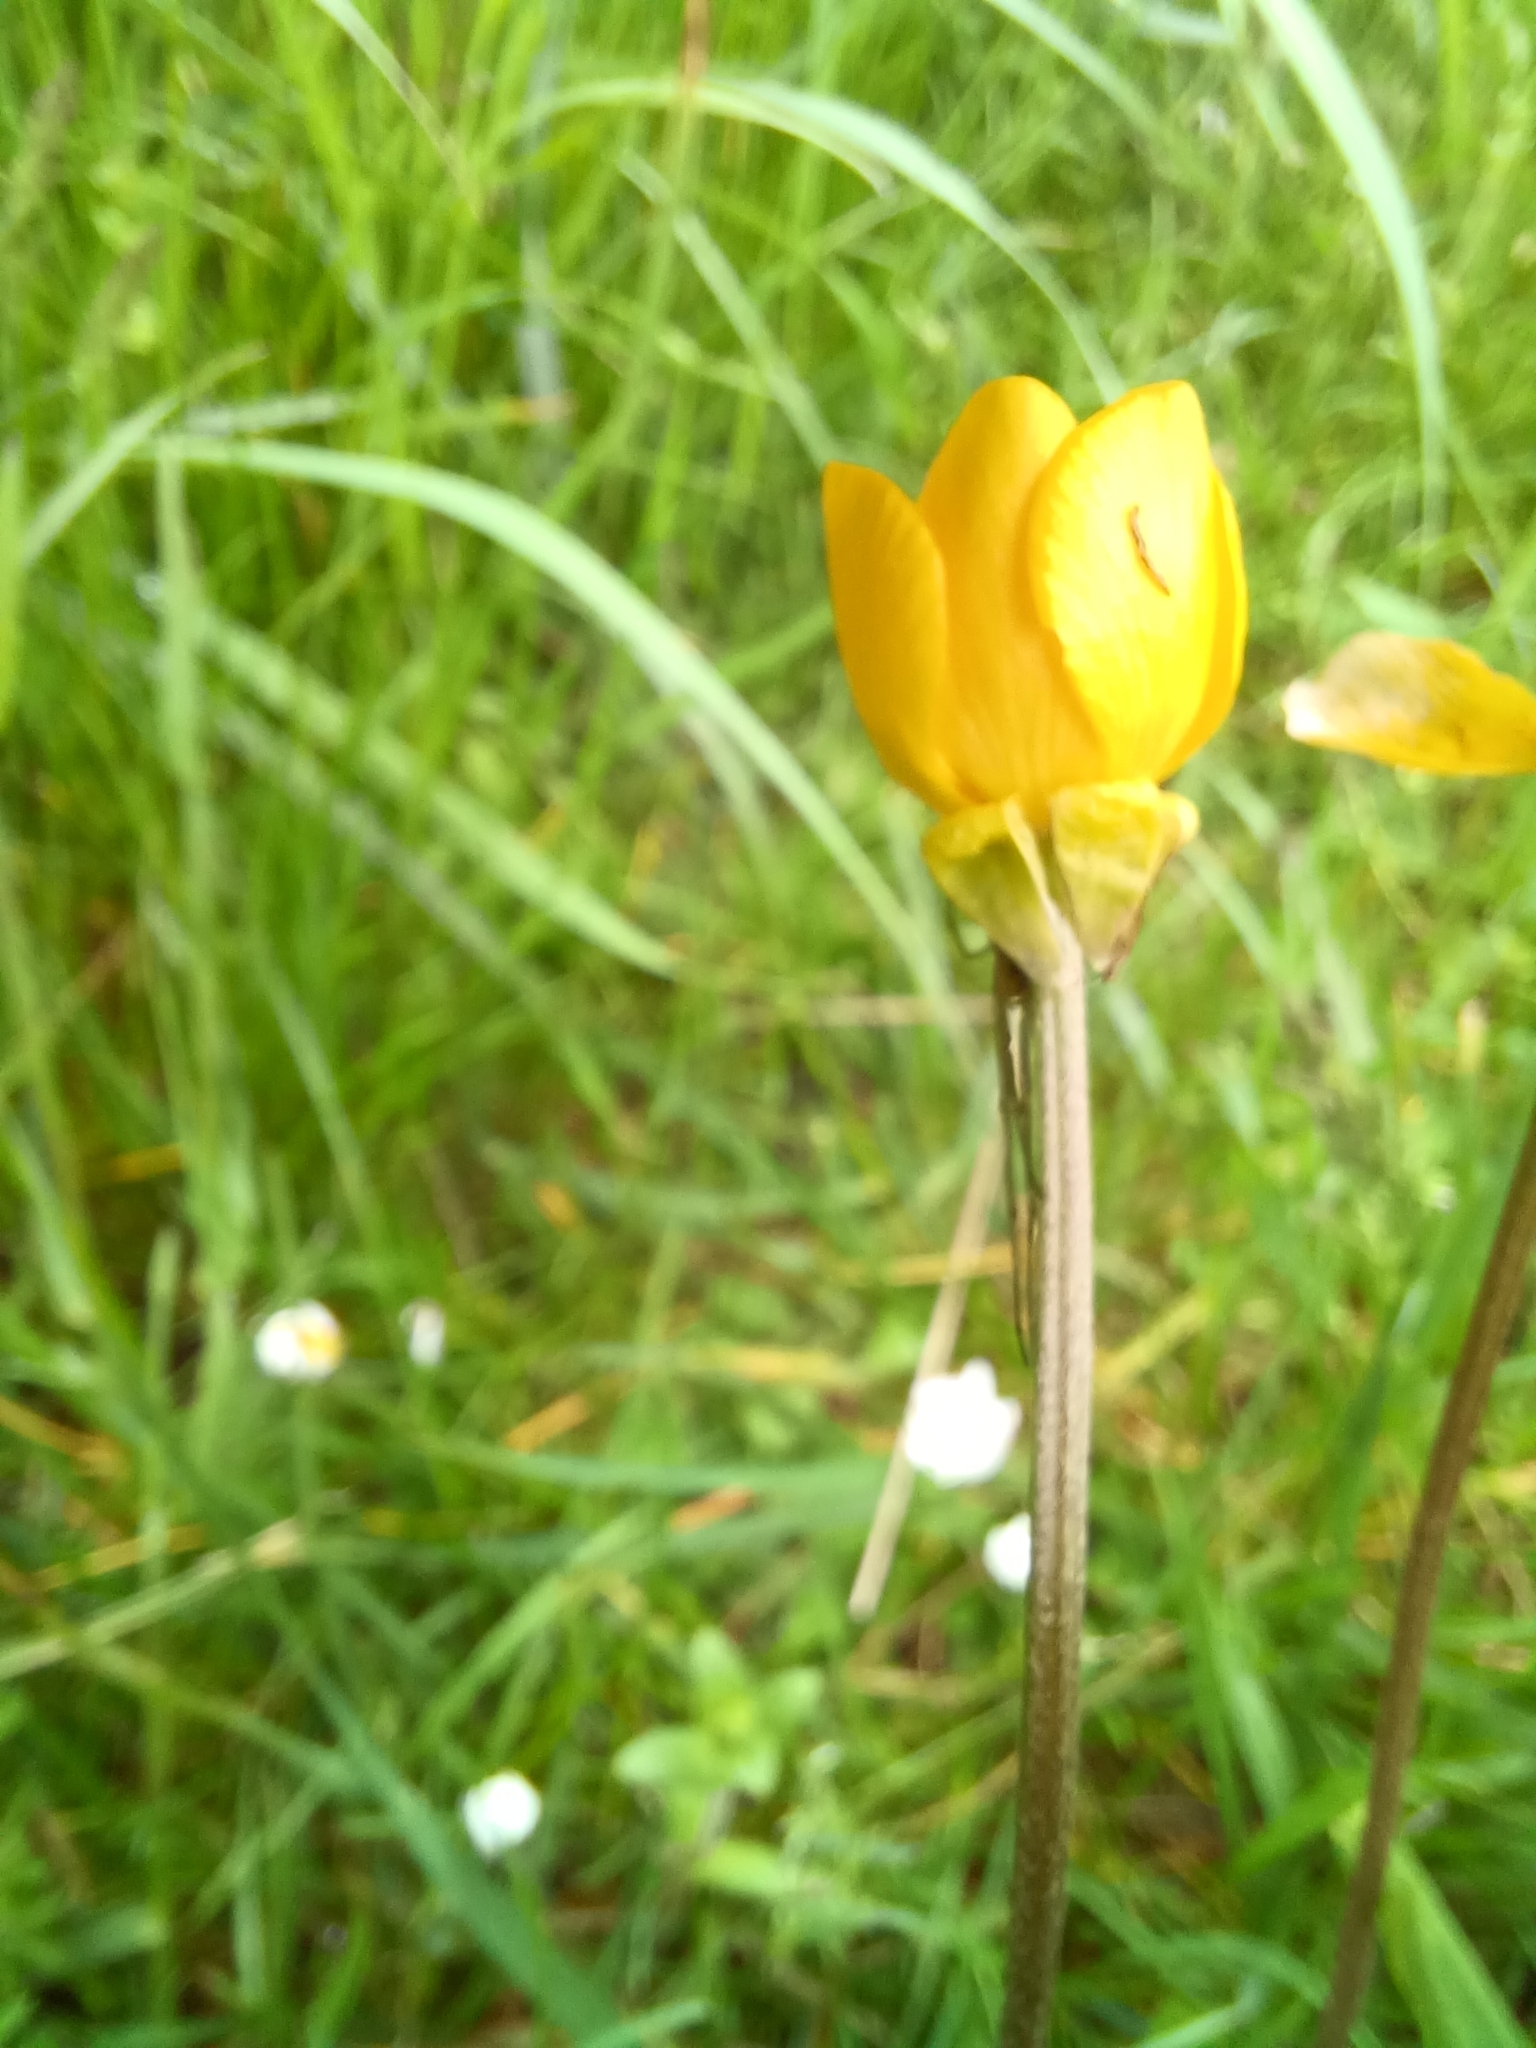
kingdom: Plantae
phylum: Tracheophyta
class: Magnoliopsida
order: Ranunculales
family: Ranunculaceae
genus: Ranunculus
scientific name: Ranunculus bulbosus
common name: Bulbous buttercup
